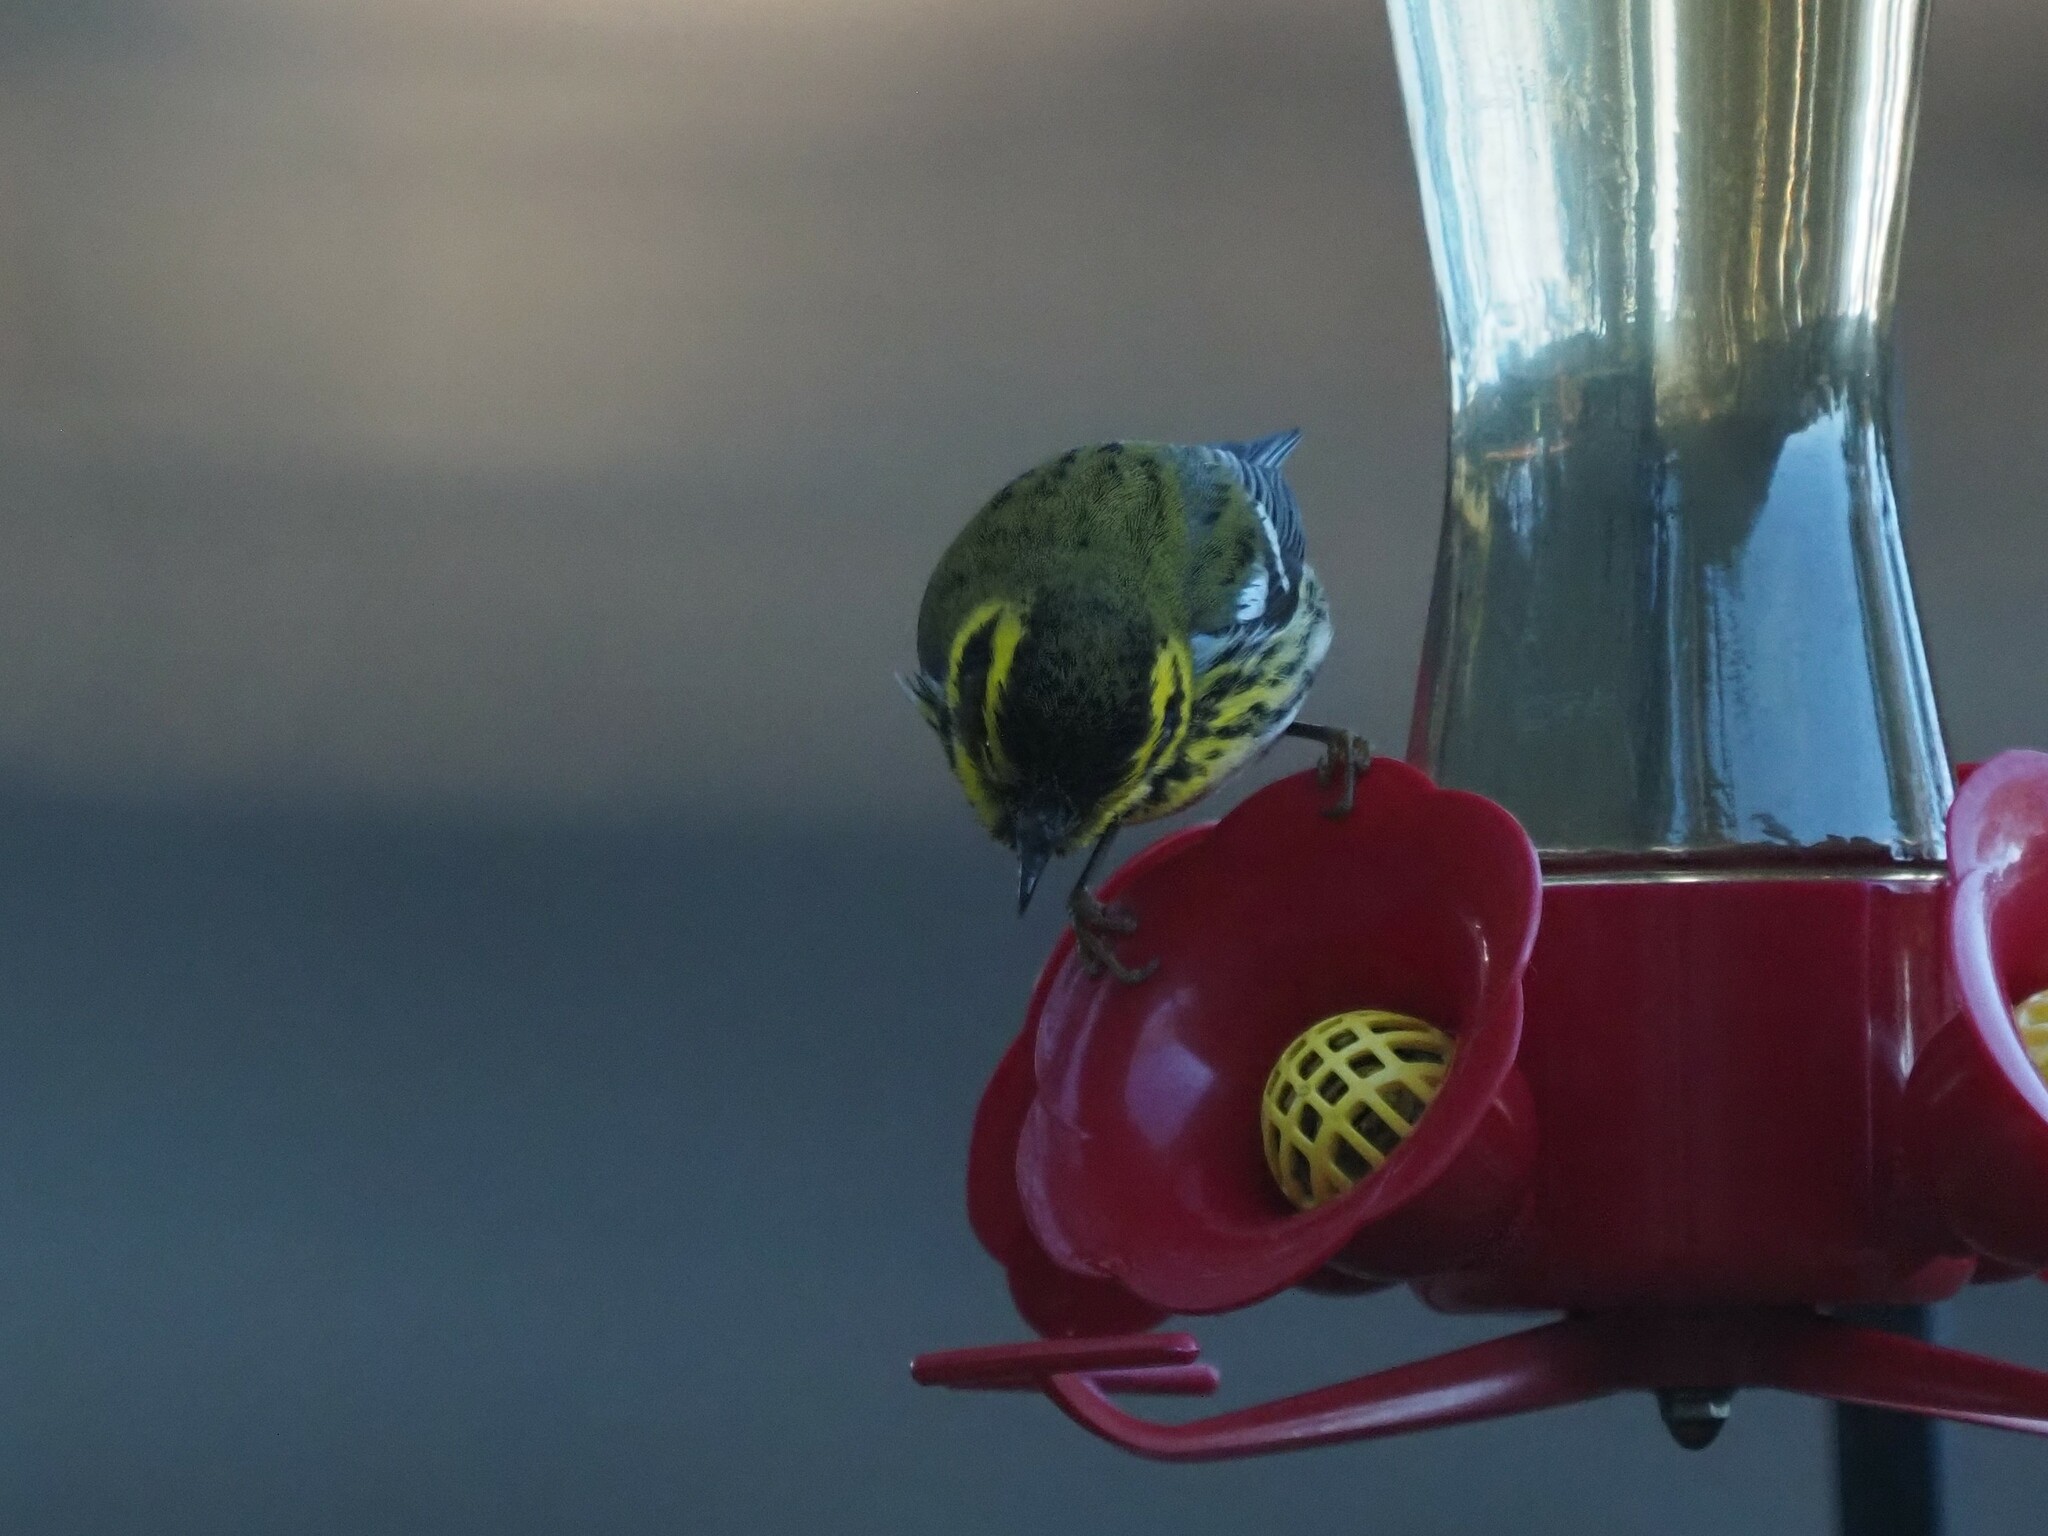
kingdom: Animalia
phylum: Chordata
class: Aves
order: Passeriformes
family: Parulidae
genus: Setophaga
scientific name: Setophaga townsendi
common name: Townsend's warbler
